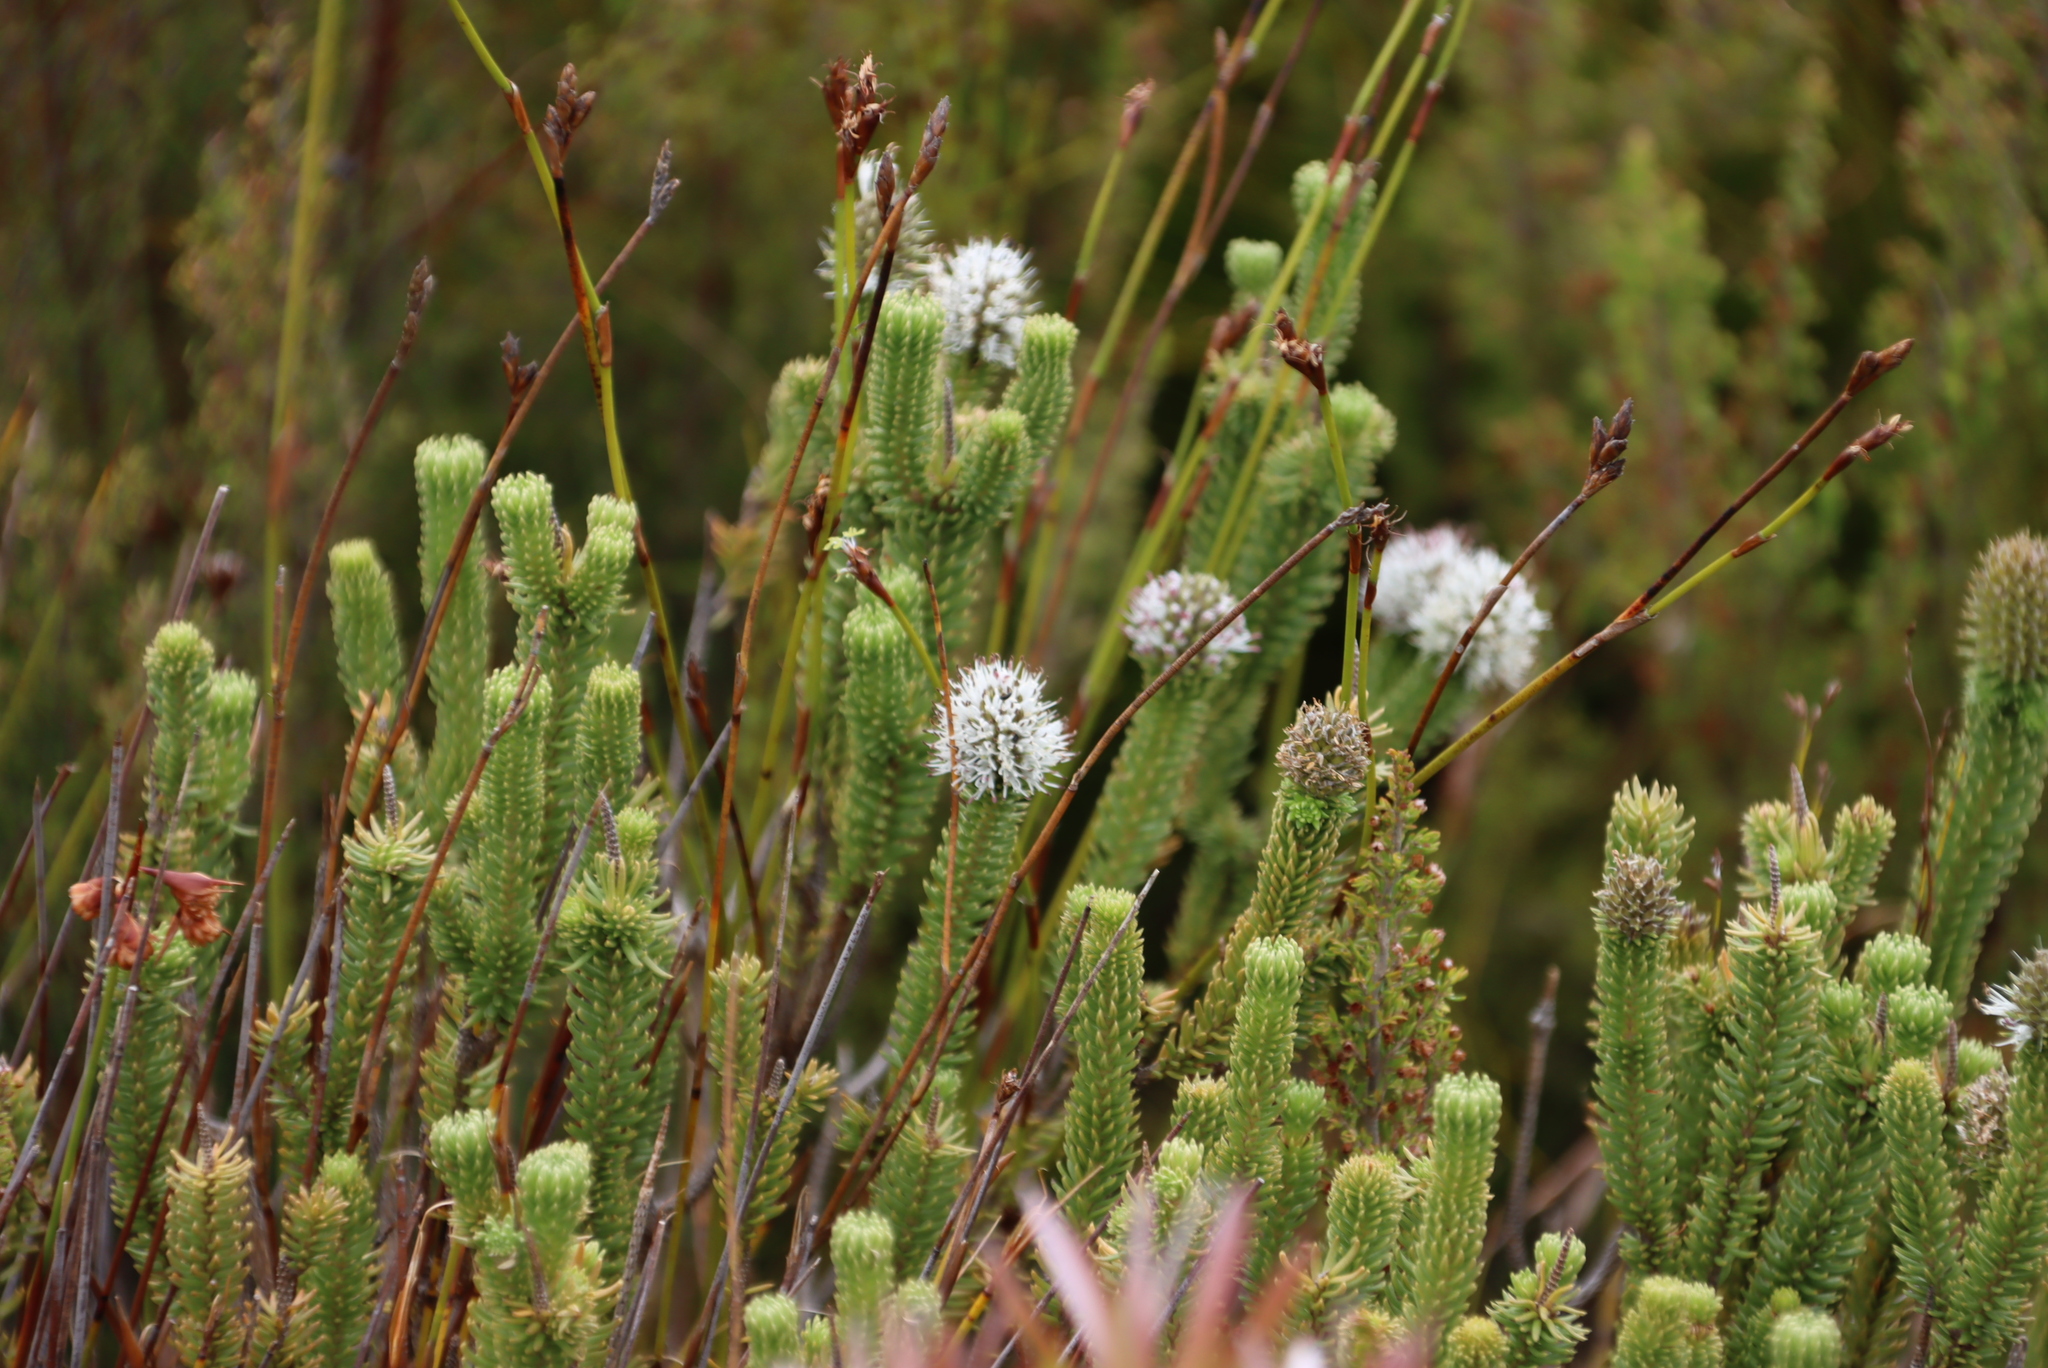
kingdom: Plantae
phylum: Tracheophyta
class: Magnoliopsida
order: Lamiales
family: Stilbaceae
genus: Stilbe
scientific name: Stilbe vestita
